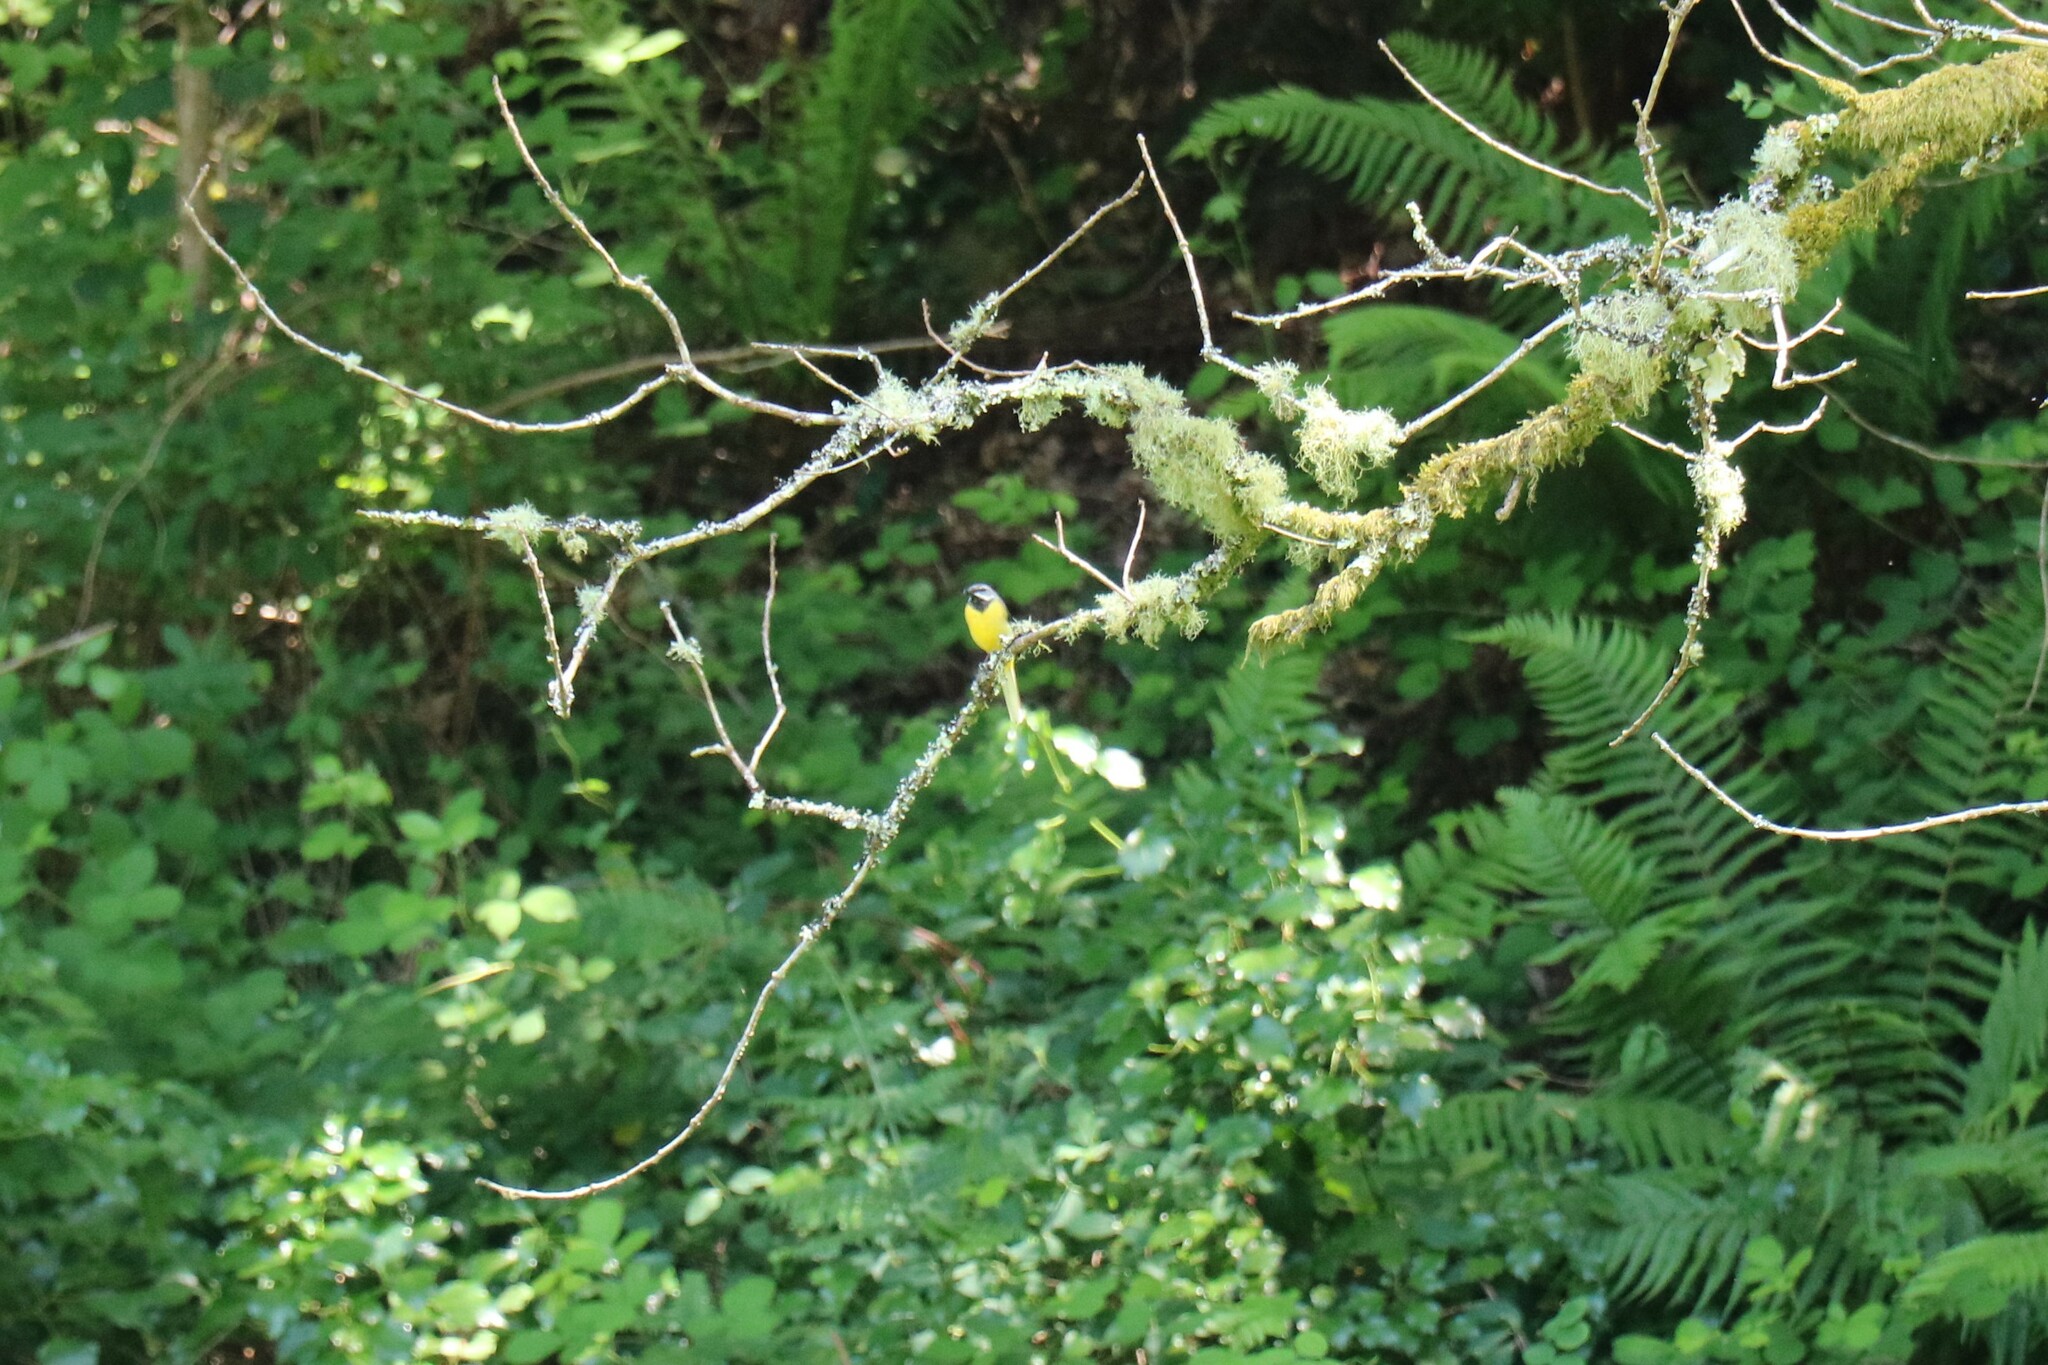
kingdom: Animalia
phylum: Chordata
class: Aves
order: Passeriformes
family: Motacillidae
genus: Motacilla
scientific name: Motacilla cinerea
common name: Grey wagtail
